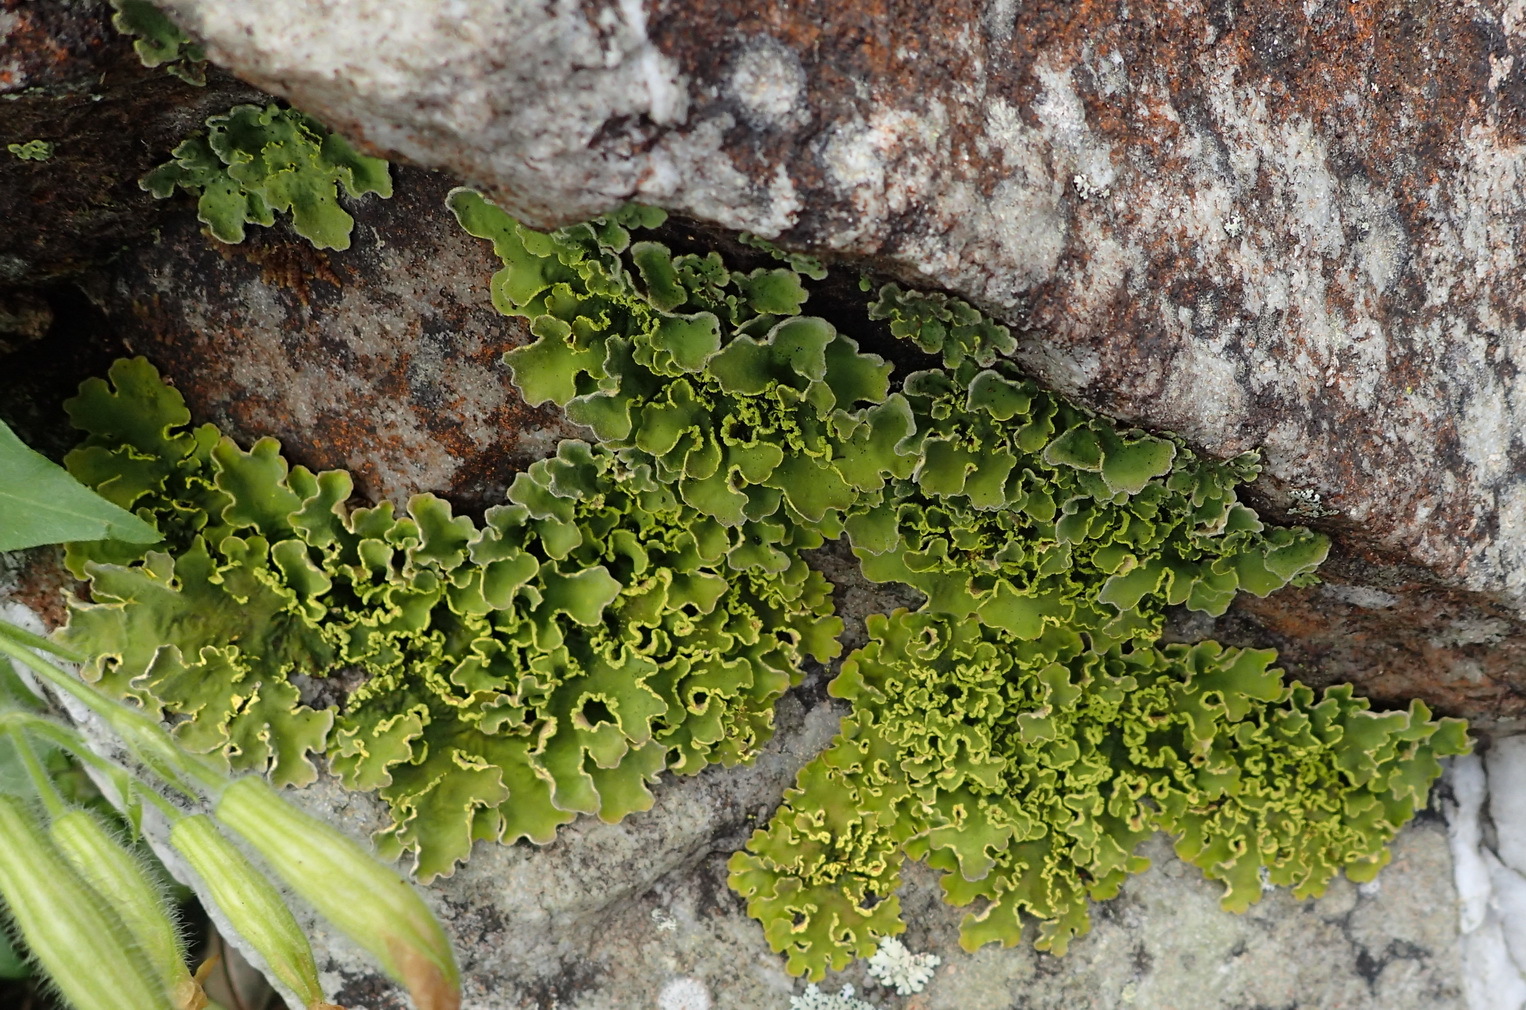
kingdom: Fungi
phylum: Ascomycota
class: Lecanoromycetes
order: Peltigerales
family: Lobariaceae
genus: Pseudocyphellaria
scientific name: Pseudocyphellaria aurata
